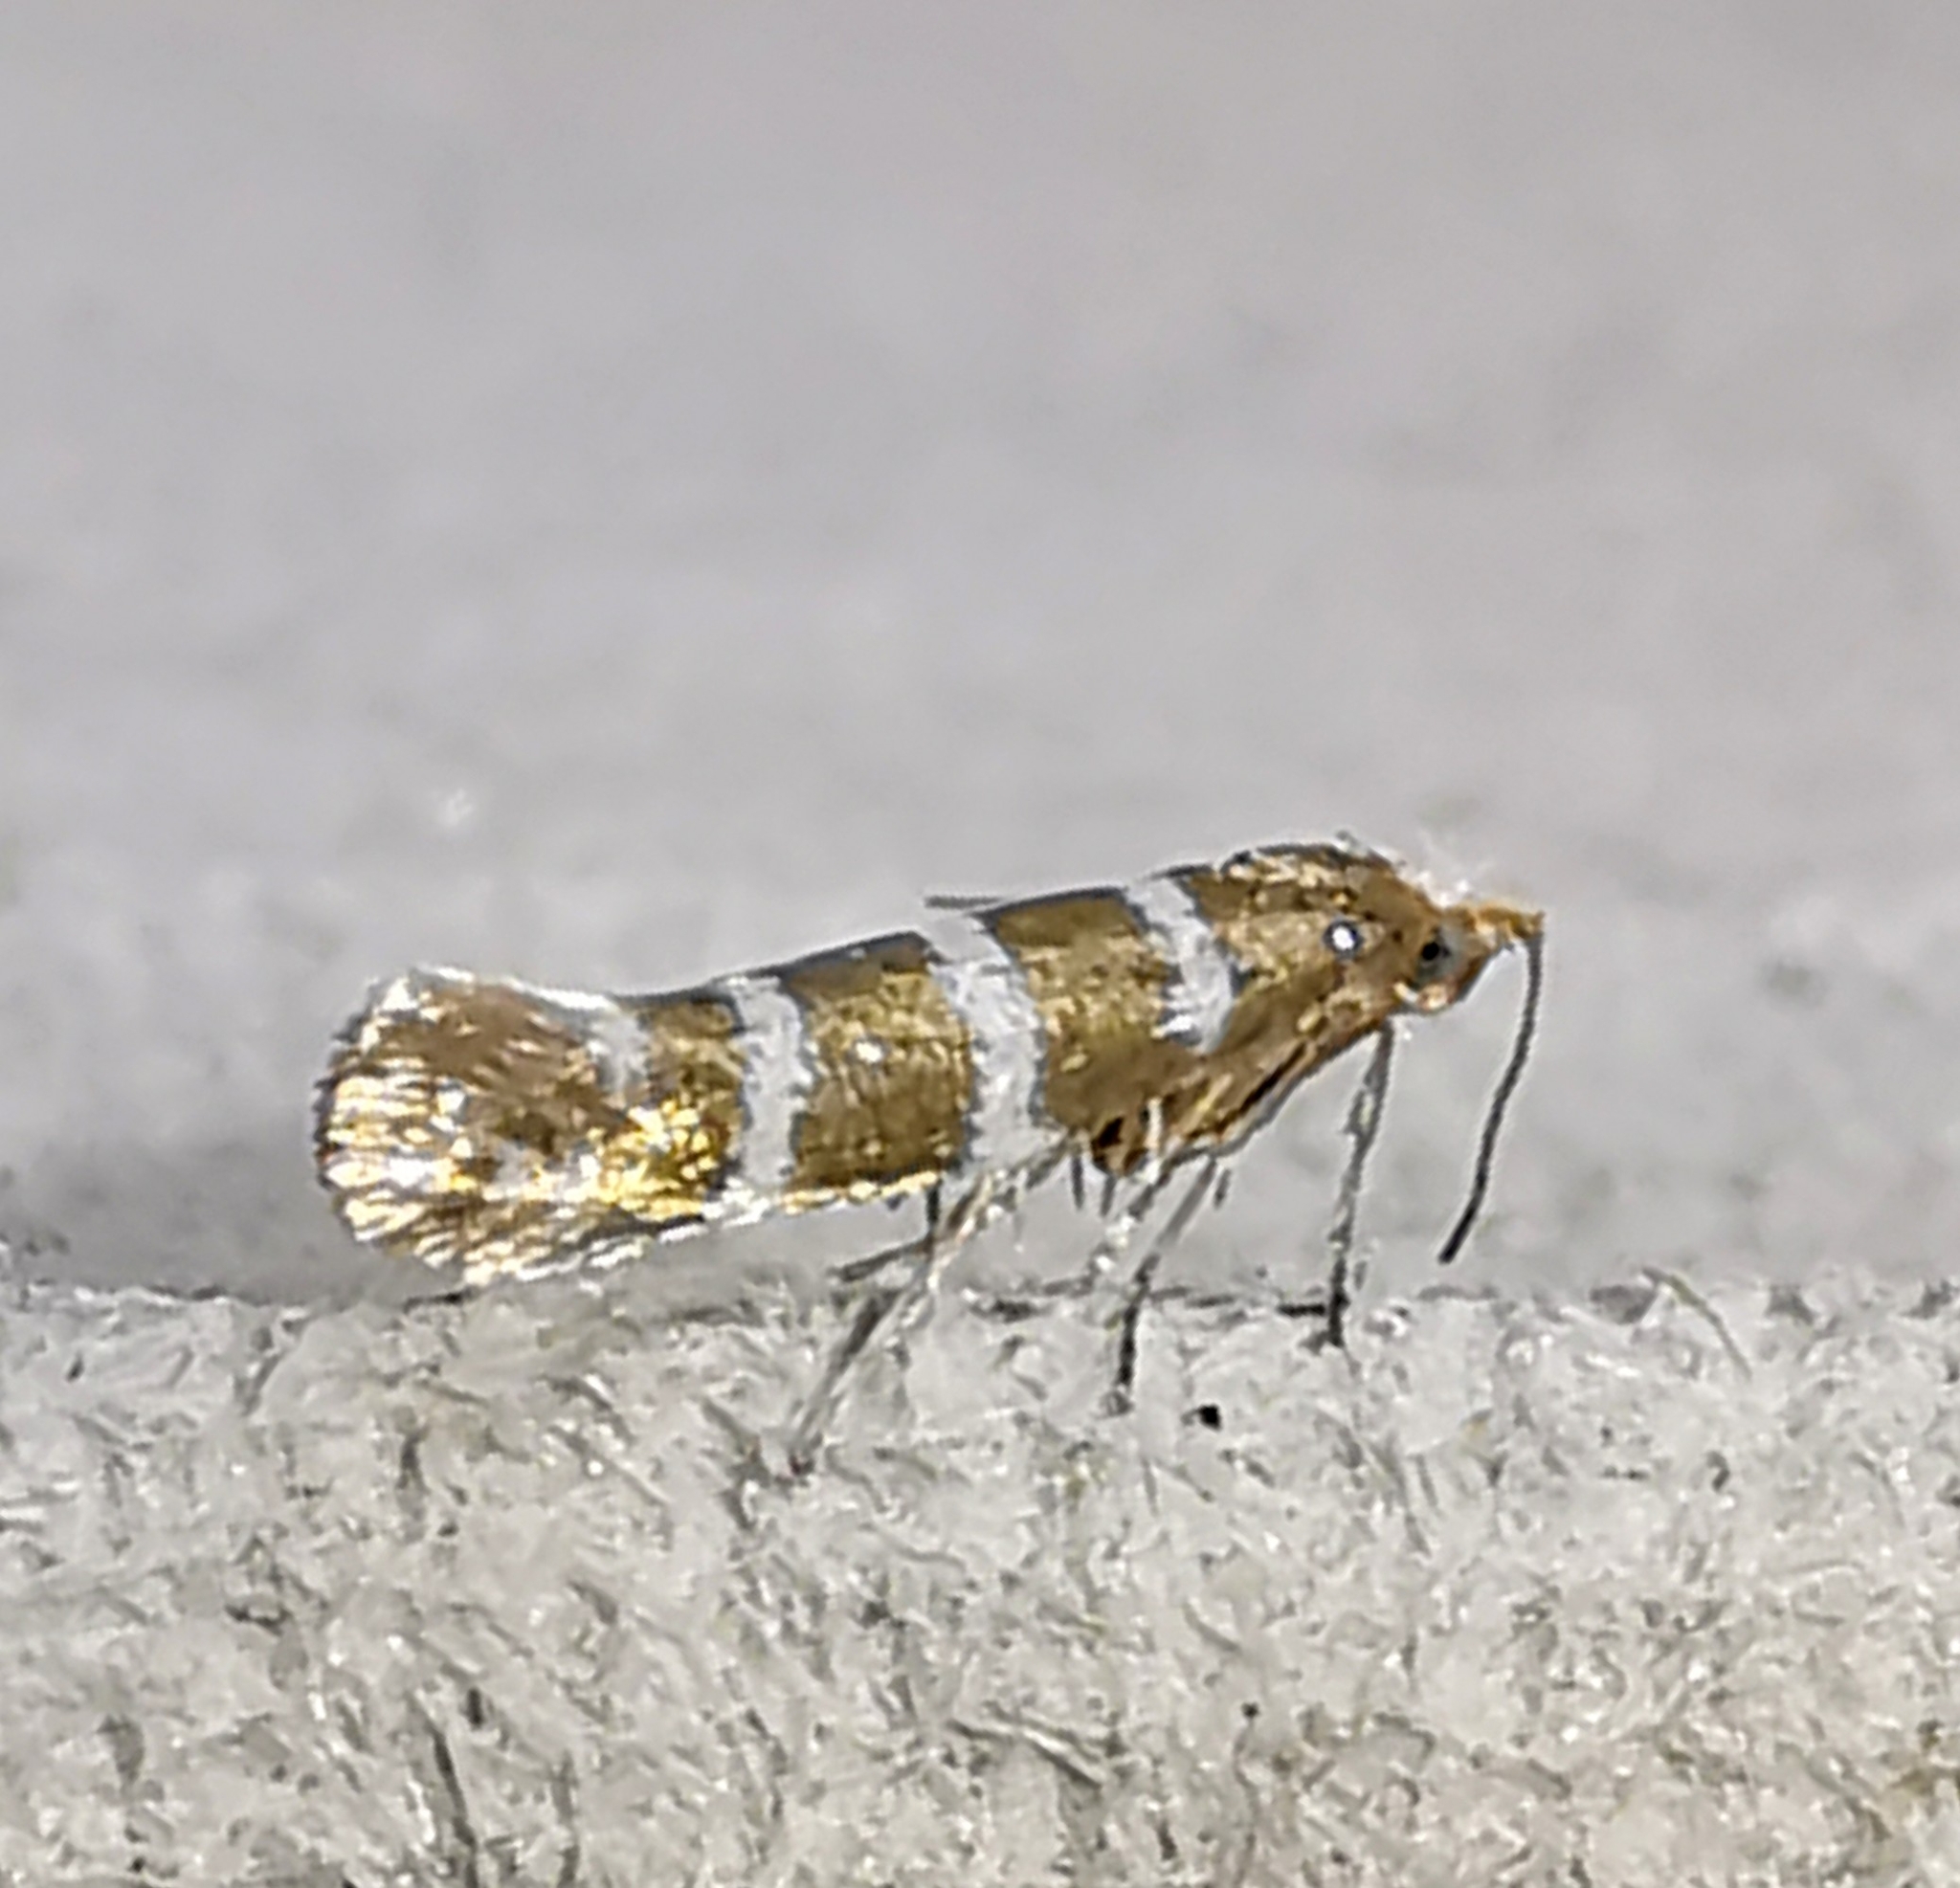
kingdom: Animalia
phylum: Arthropoda
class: Insecta
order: Lepidoptera
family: Argyresthiidae
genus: Argyresthia
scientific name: Argyresthia trifasciata
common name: Triple-barred argent
